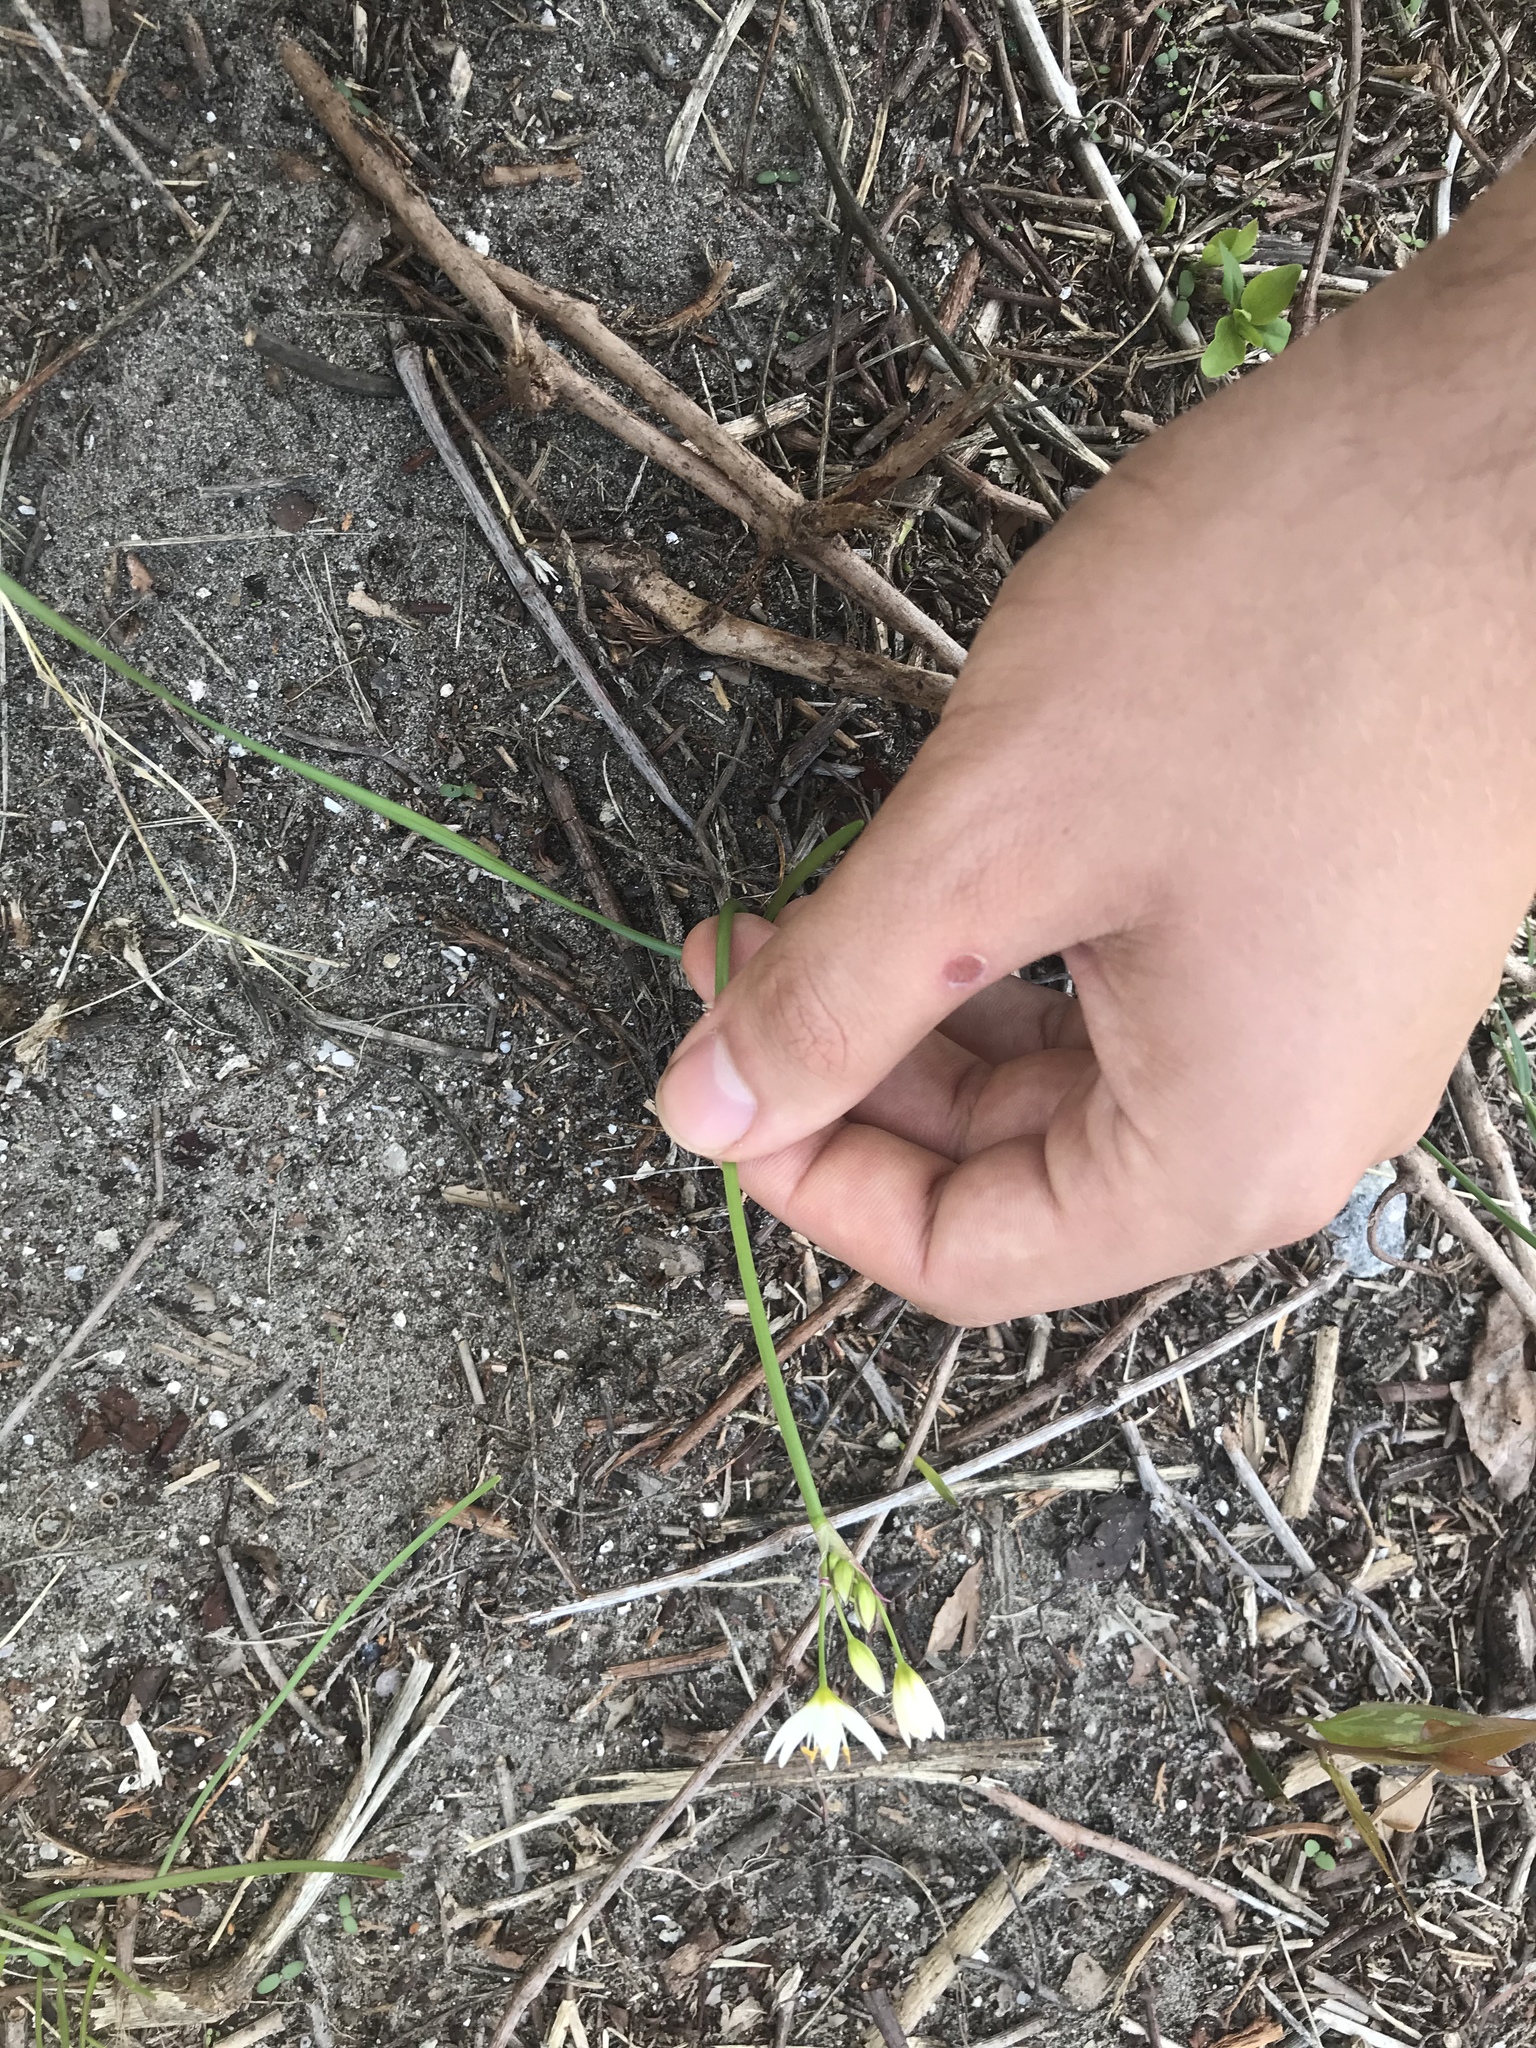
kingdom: Plantae
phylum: Tracheophyta
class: Liliopsida
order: Asparagales
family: Amaryllidaceae
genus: Nothoscordum
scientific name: Nothoscordum bivalve
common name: Crow-poison
